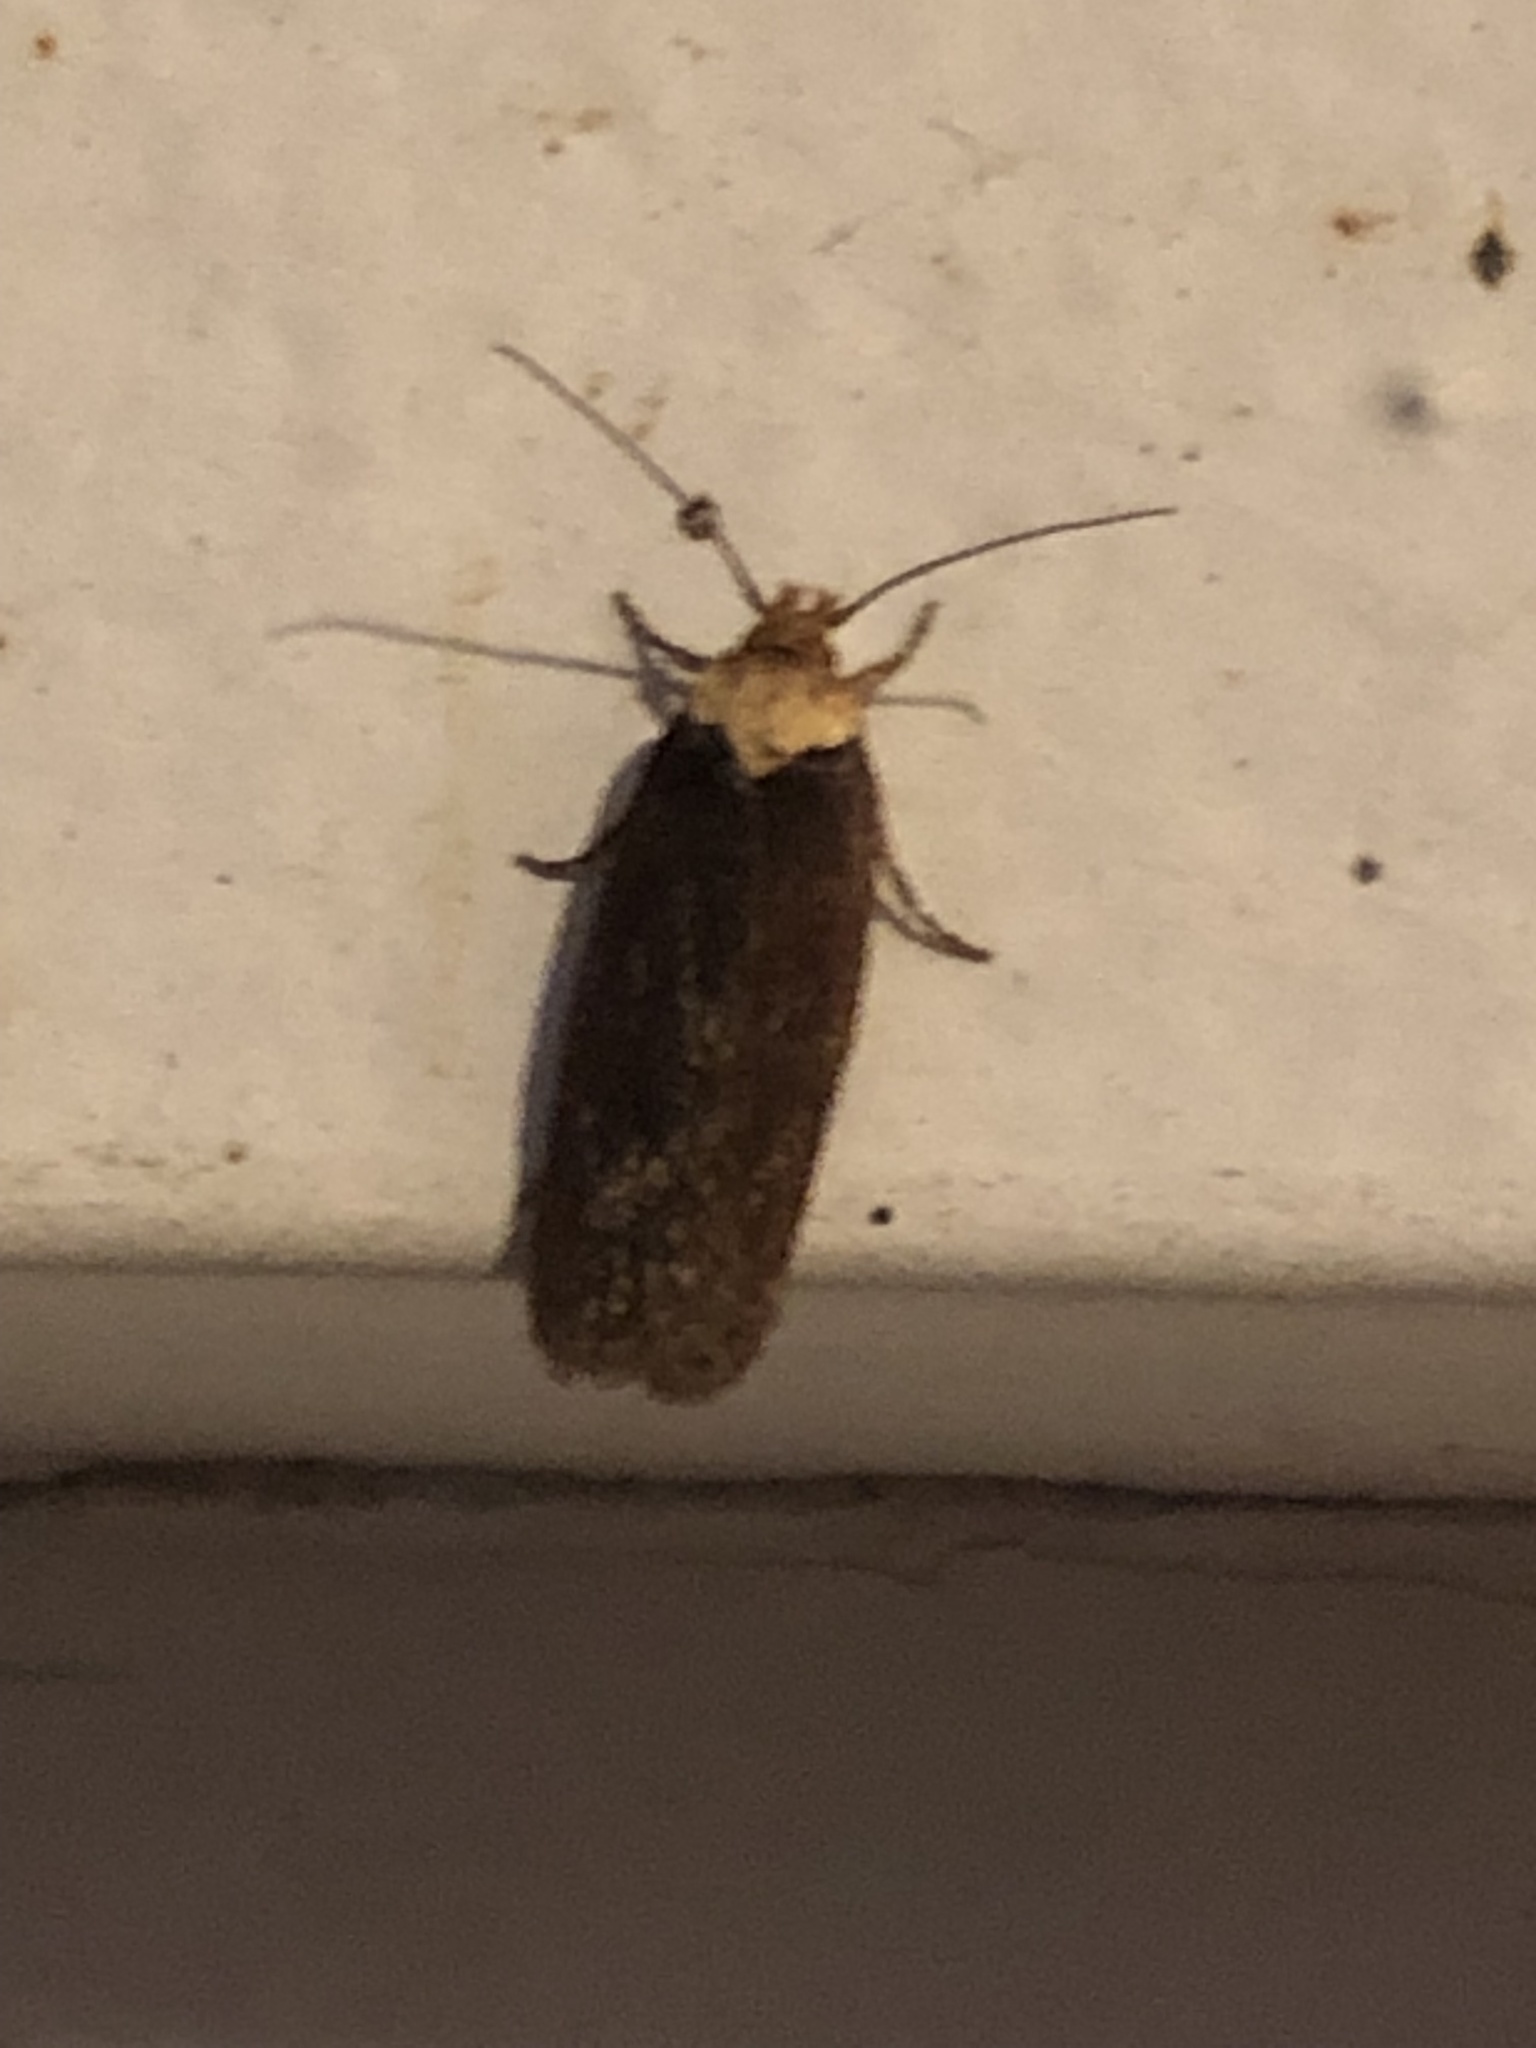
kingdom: Animalia
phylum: Arthropoda
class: Insecta
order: Lepidoptera
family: Depressariidae
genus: Depressaria
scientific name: Depressaria depressana
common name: Lost flat-body
